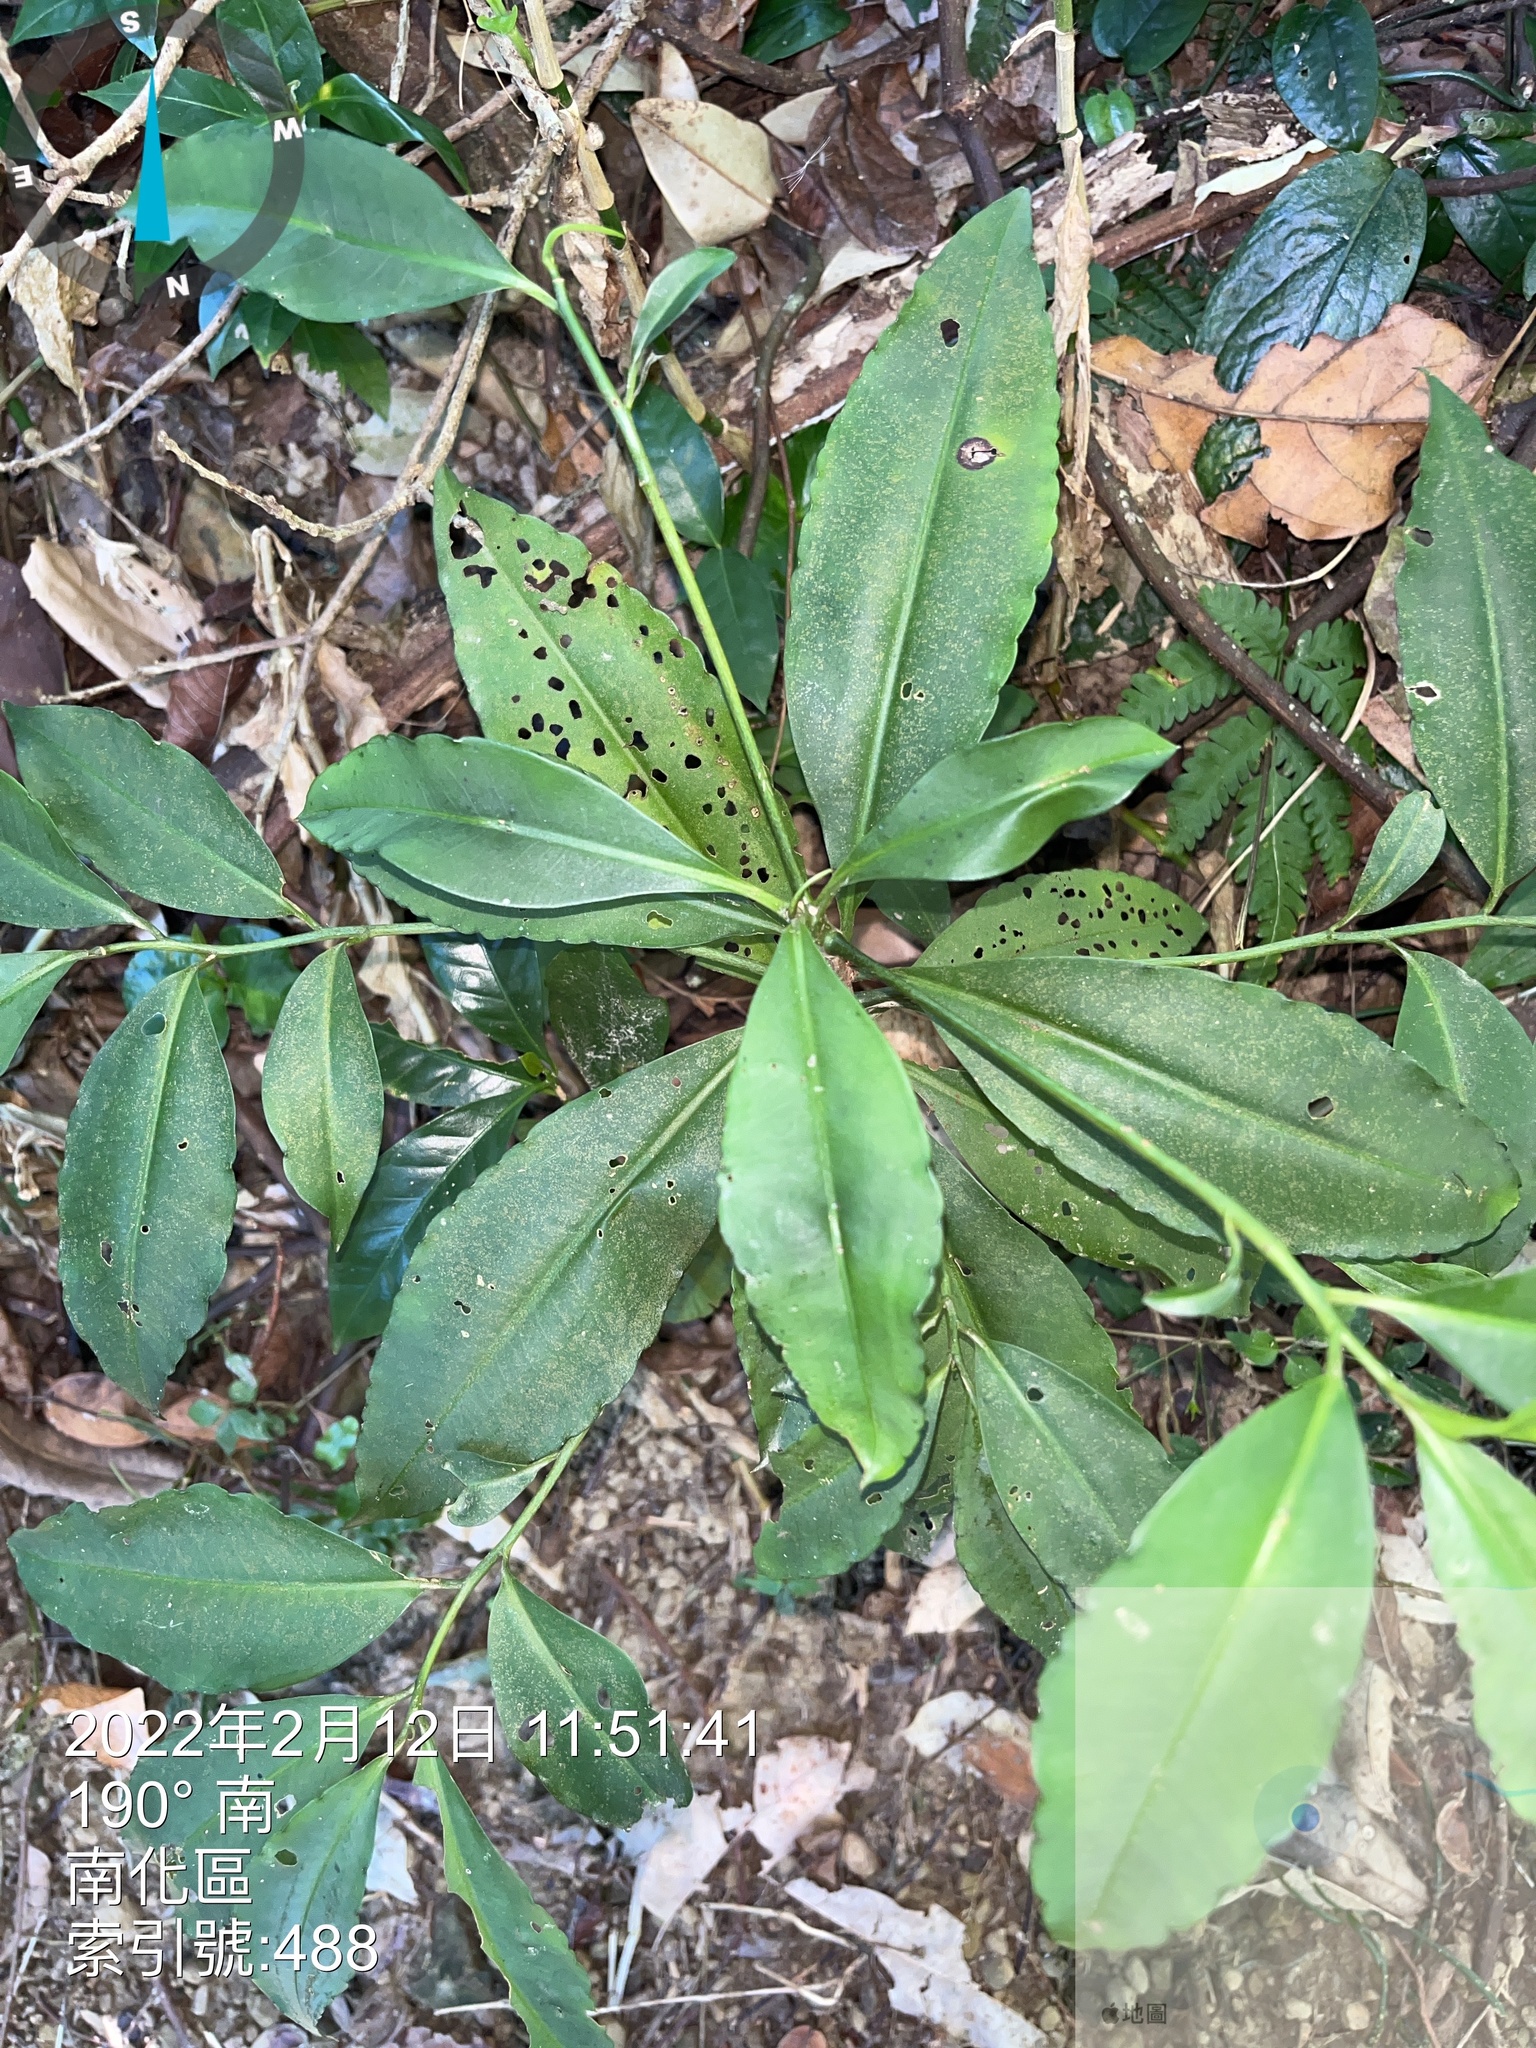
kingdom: Plantae
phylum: Tracheophyta
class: Magnoliopsida
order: Ericales
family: Primulaceae
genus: Ardisia
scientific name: Ardisia polysticta
